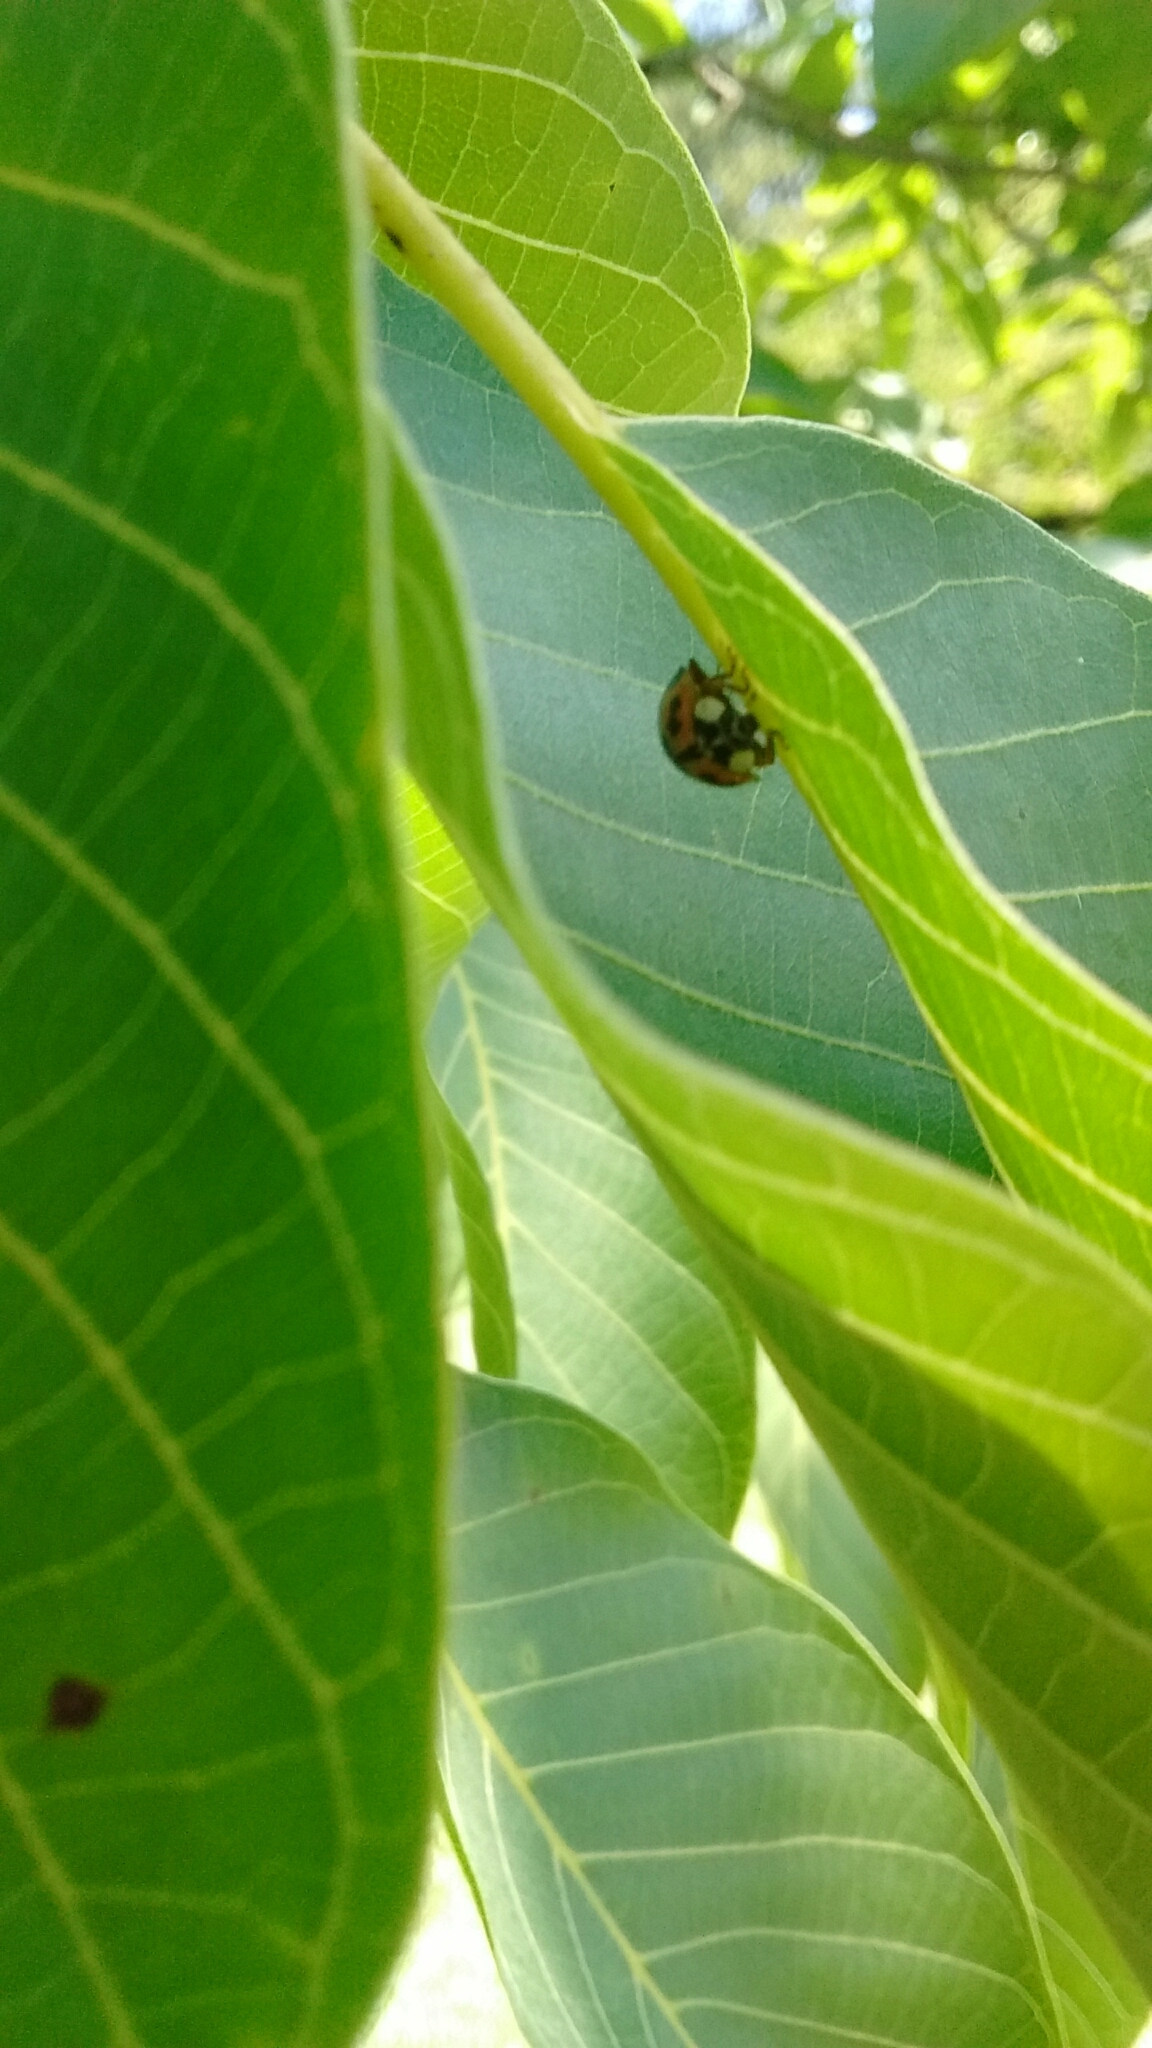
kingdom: Animalia
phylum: Arthropoda
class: Insecta
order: Coleoptera
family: Coccinellidae
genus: Harmonia
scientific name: Harmonia axyridis
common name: Harlequin ladybird
